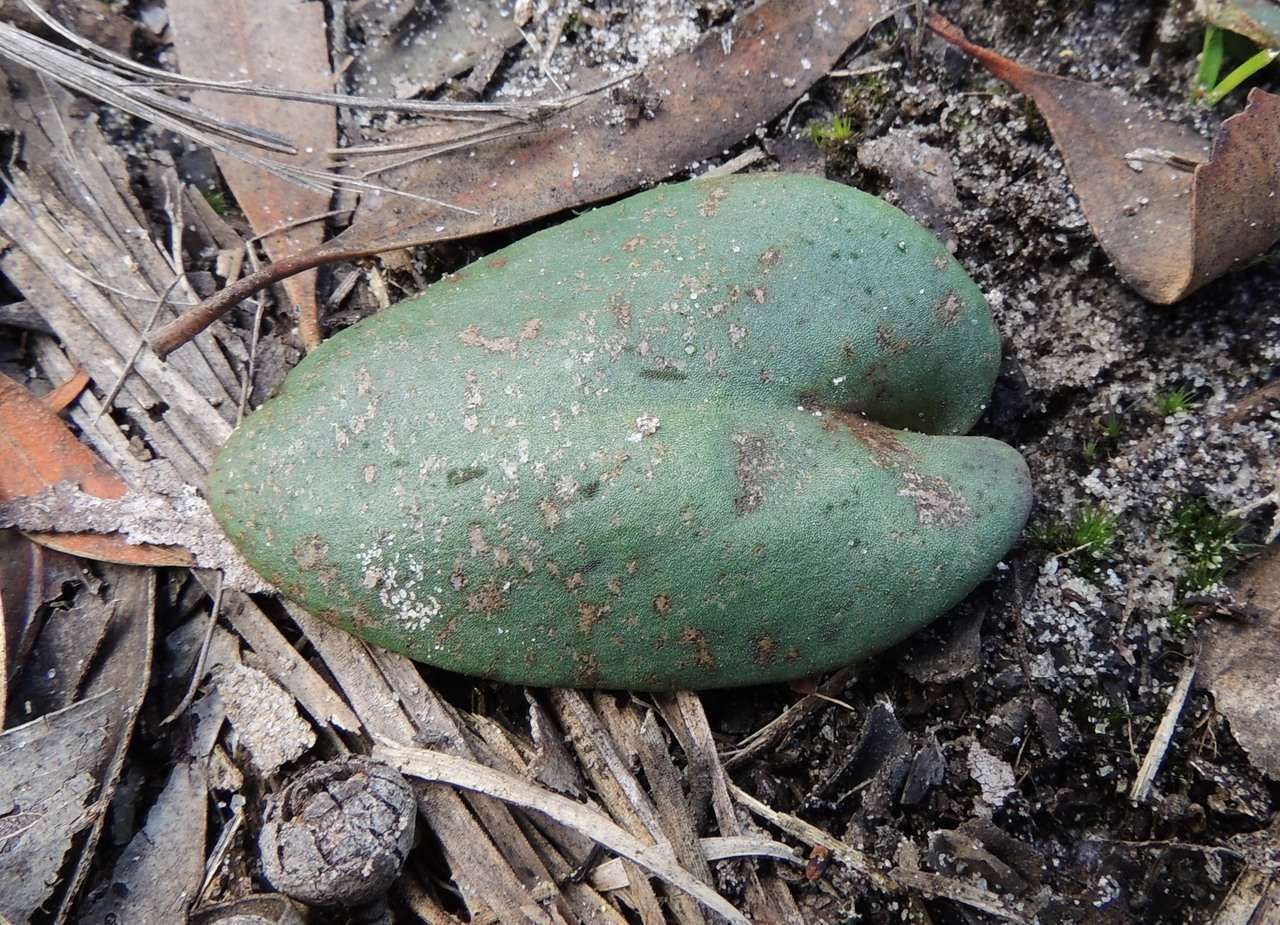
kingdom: Plantae
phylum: Tracheophyta
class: Liliopsida
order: Asparagales
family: Orchidaceae
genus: Pyrorchis
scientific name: Pyrorchis nigricans
